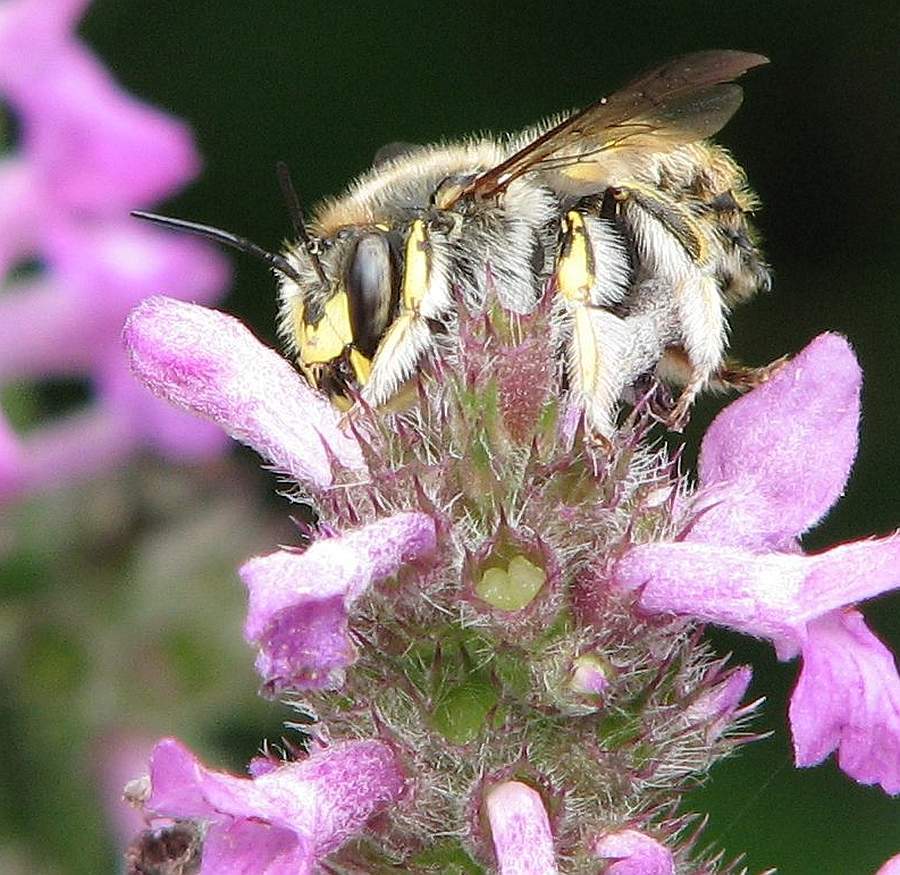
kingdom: Animalia
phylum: Arthropoda
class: Insecta
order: Hymenoptera
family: Megachilidae
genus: Anthidium
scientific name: Anthidium manicatum
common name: Wool carder bee
